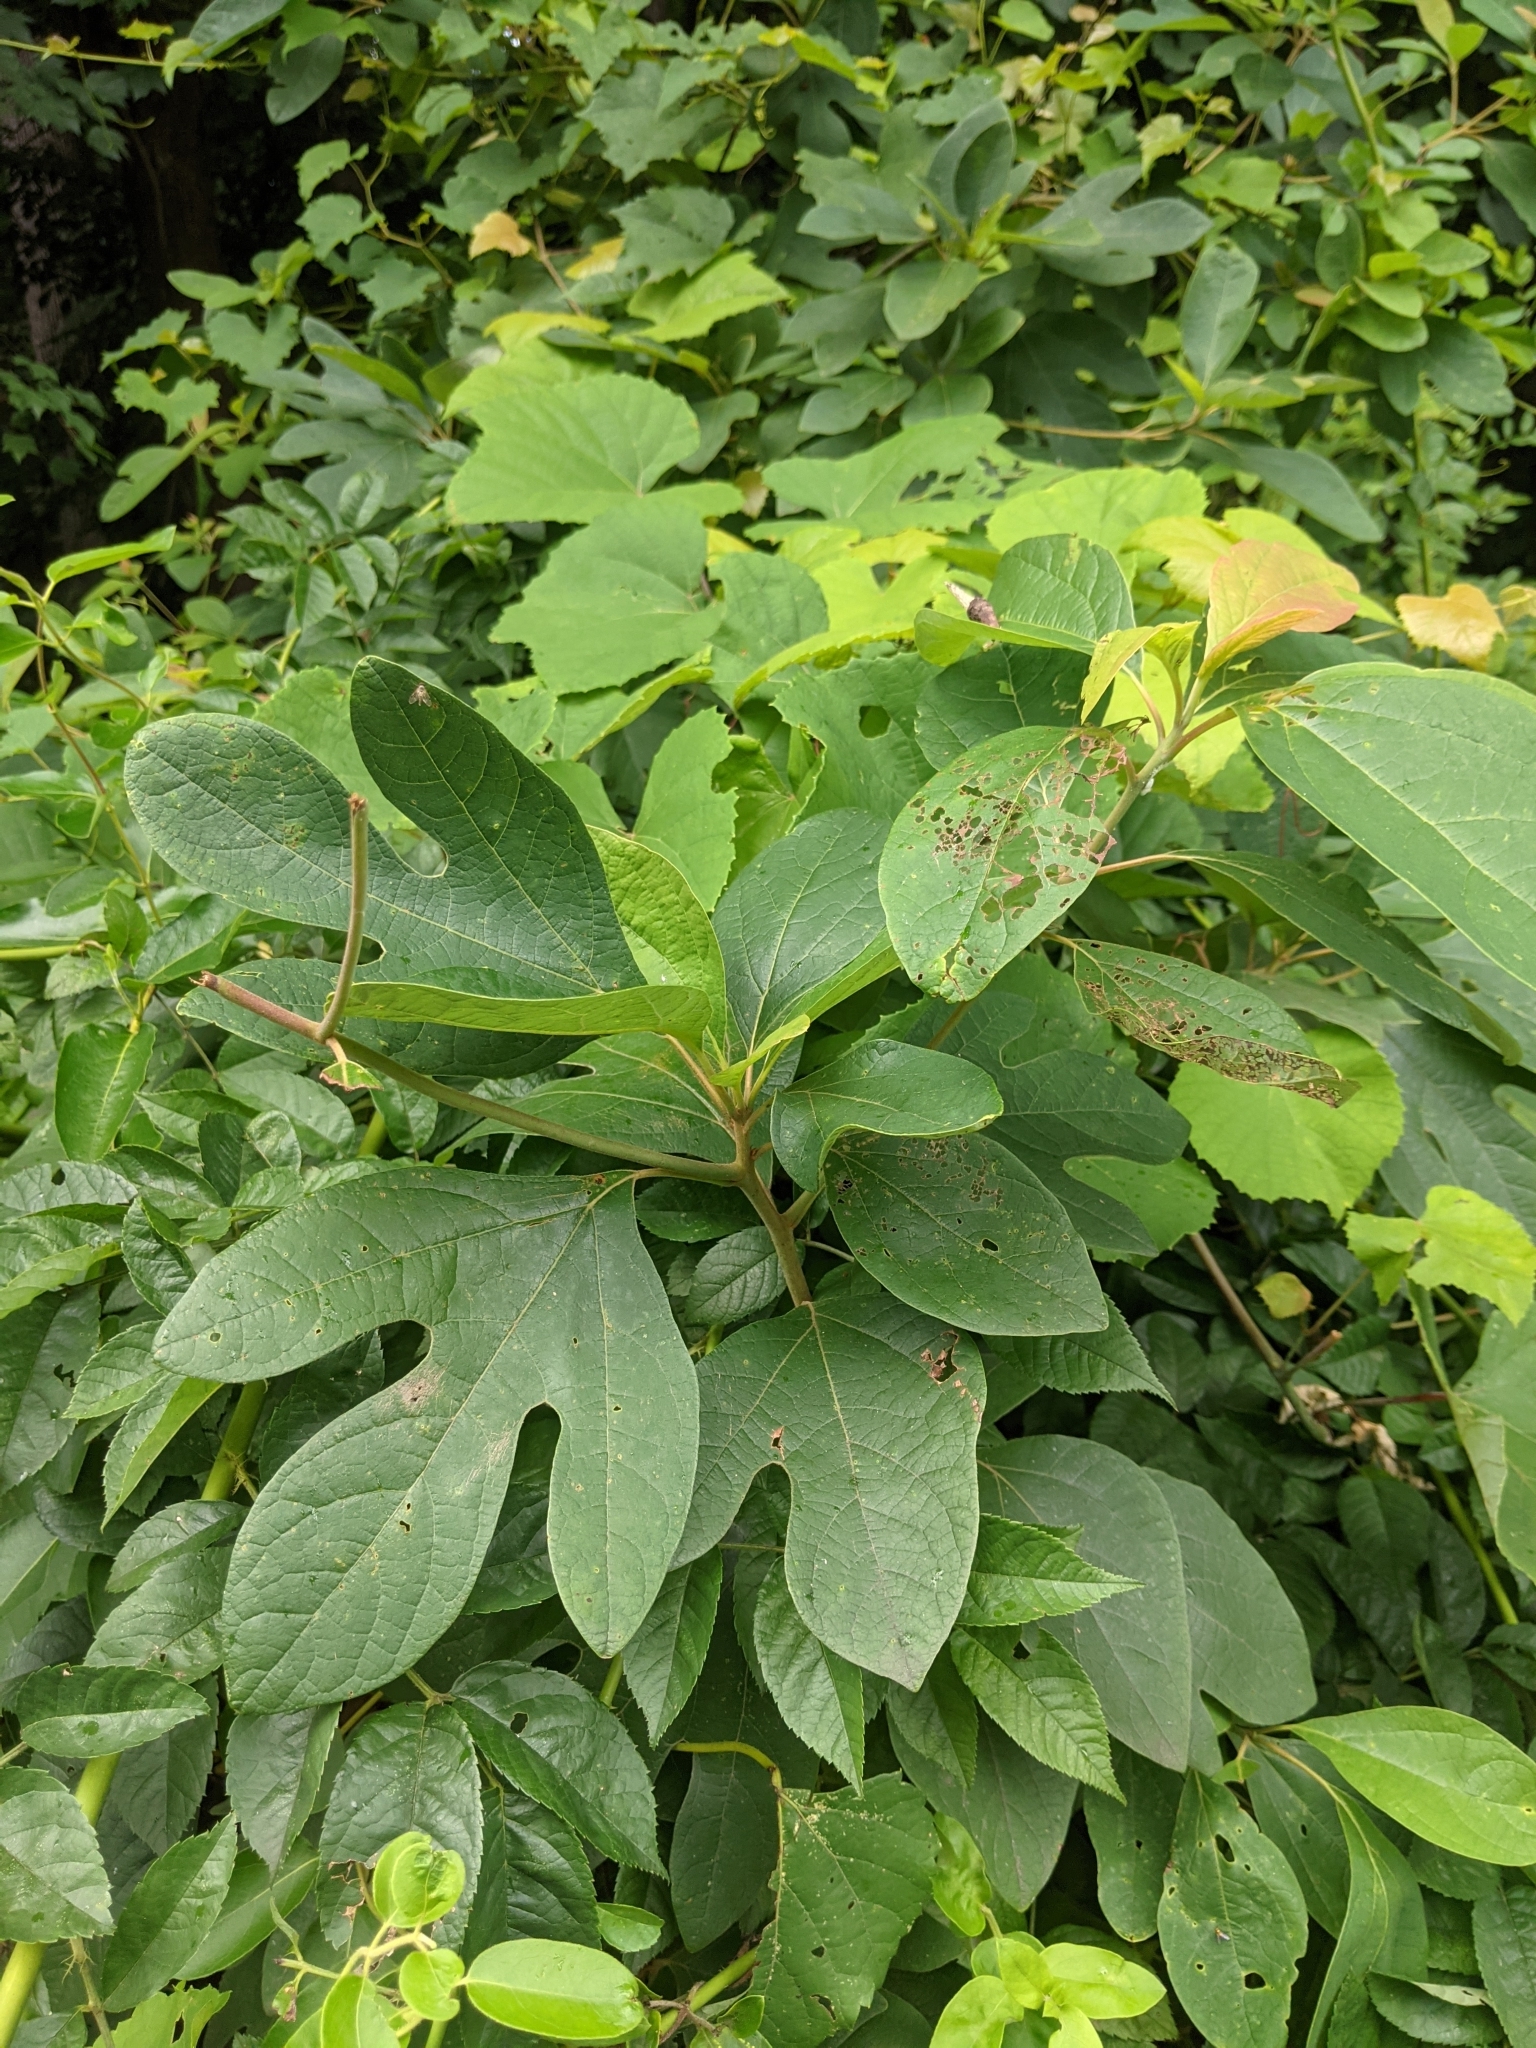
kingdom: Plantae
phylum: Tracheophyta
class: Magnoliopsida
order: Laurales
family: Lauraceae
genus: Sassafras
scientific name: Sassafras albidum
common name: Sassafras
